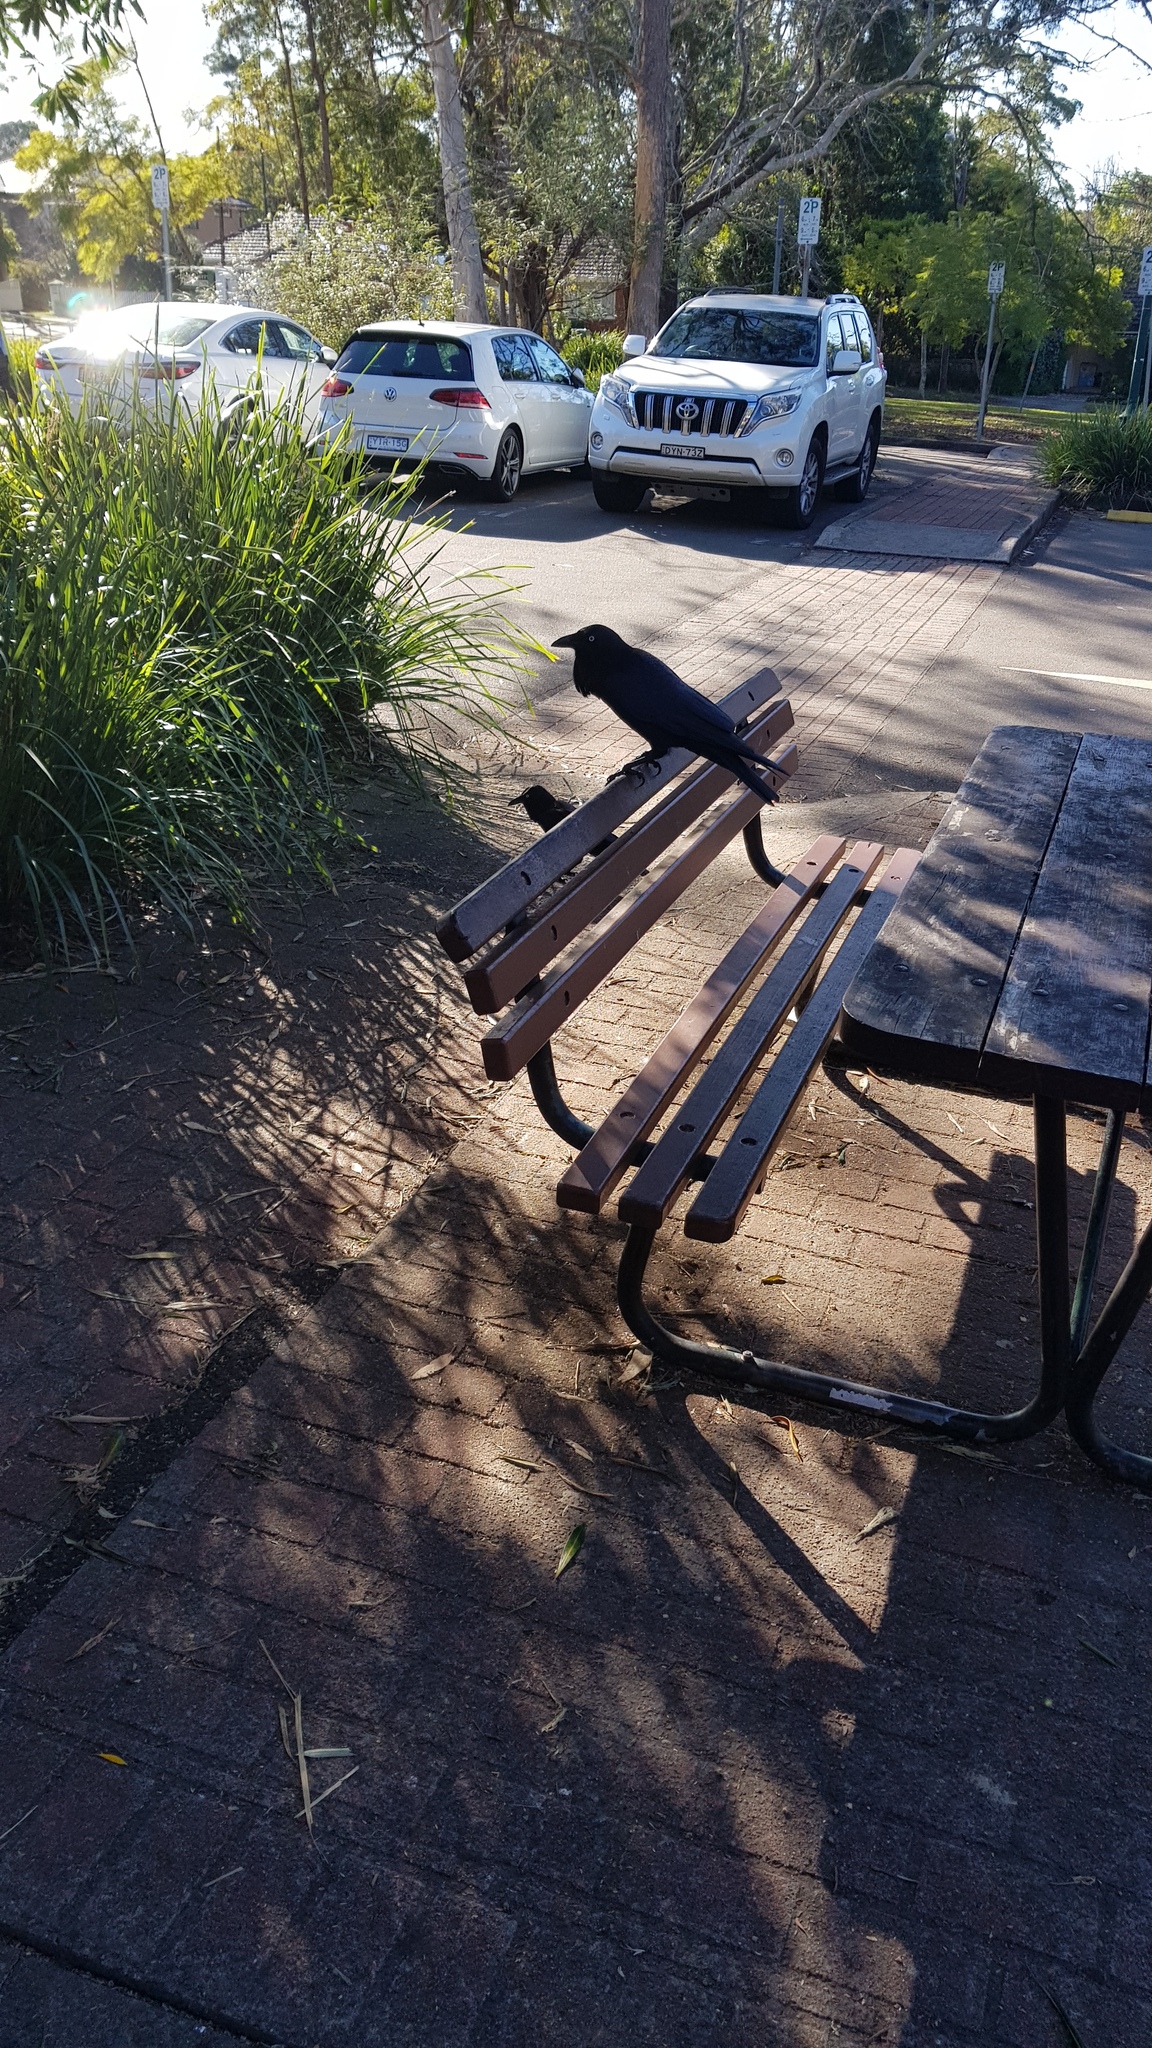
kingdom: Animalia
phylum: Chordata
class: Aves
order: Passeriformes
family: Corvidae
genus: Corvus
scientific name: Corvus coronoides
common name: Australian raven
